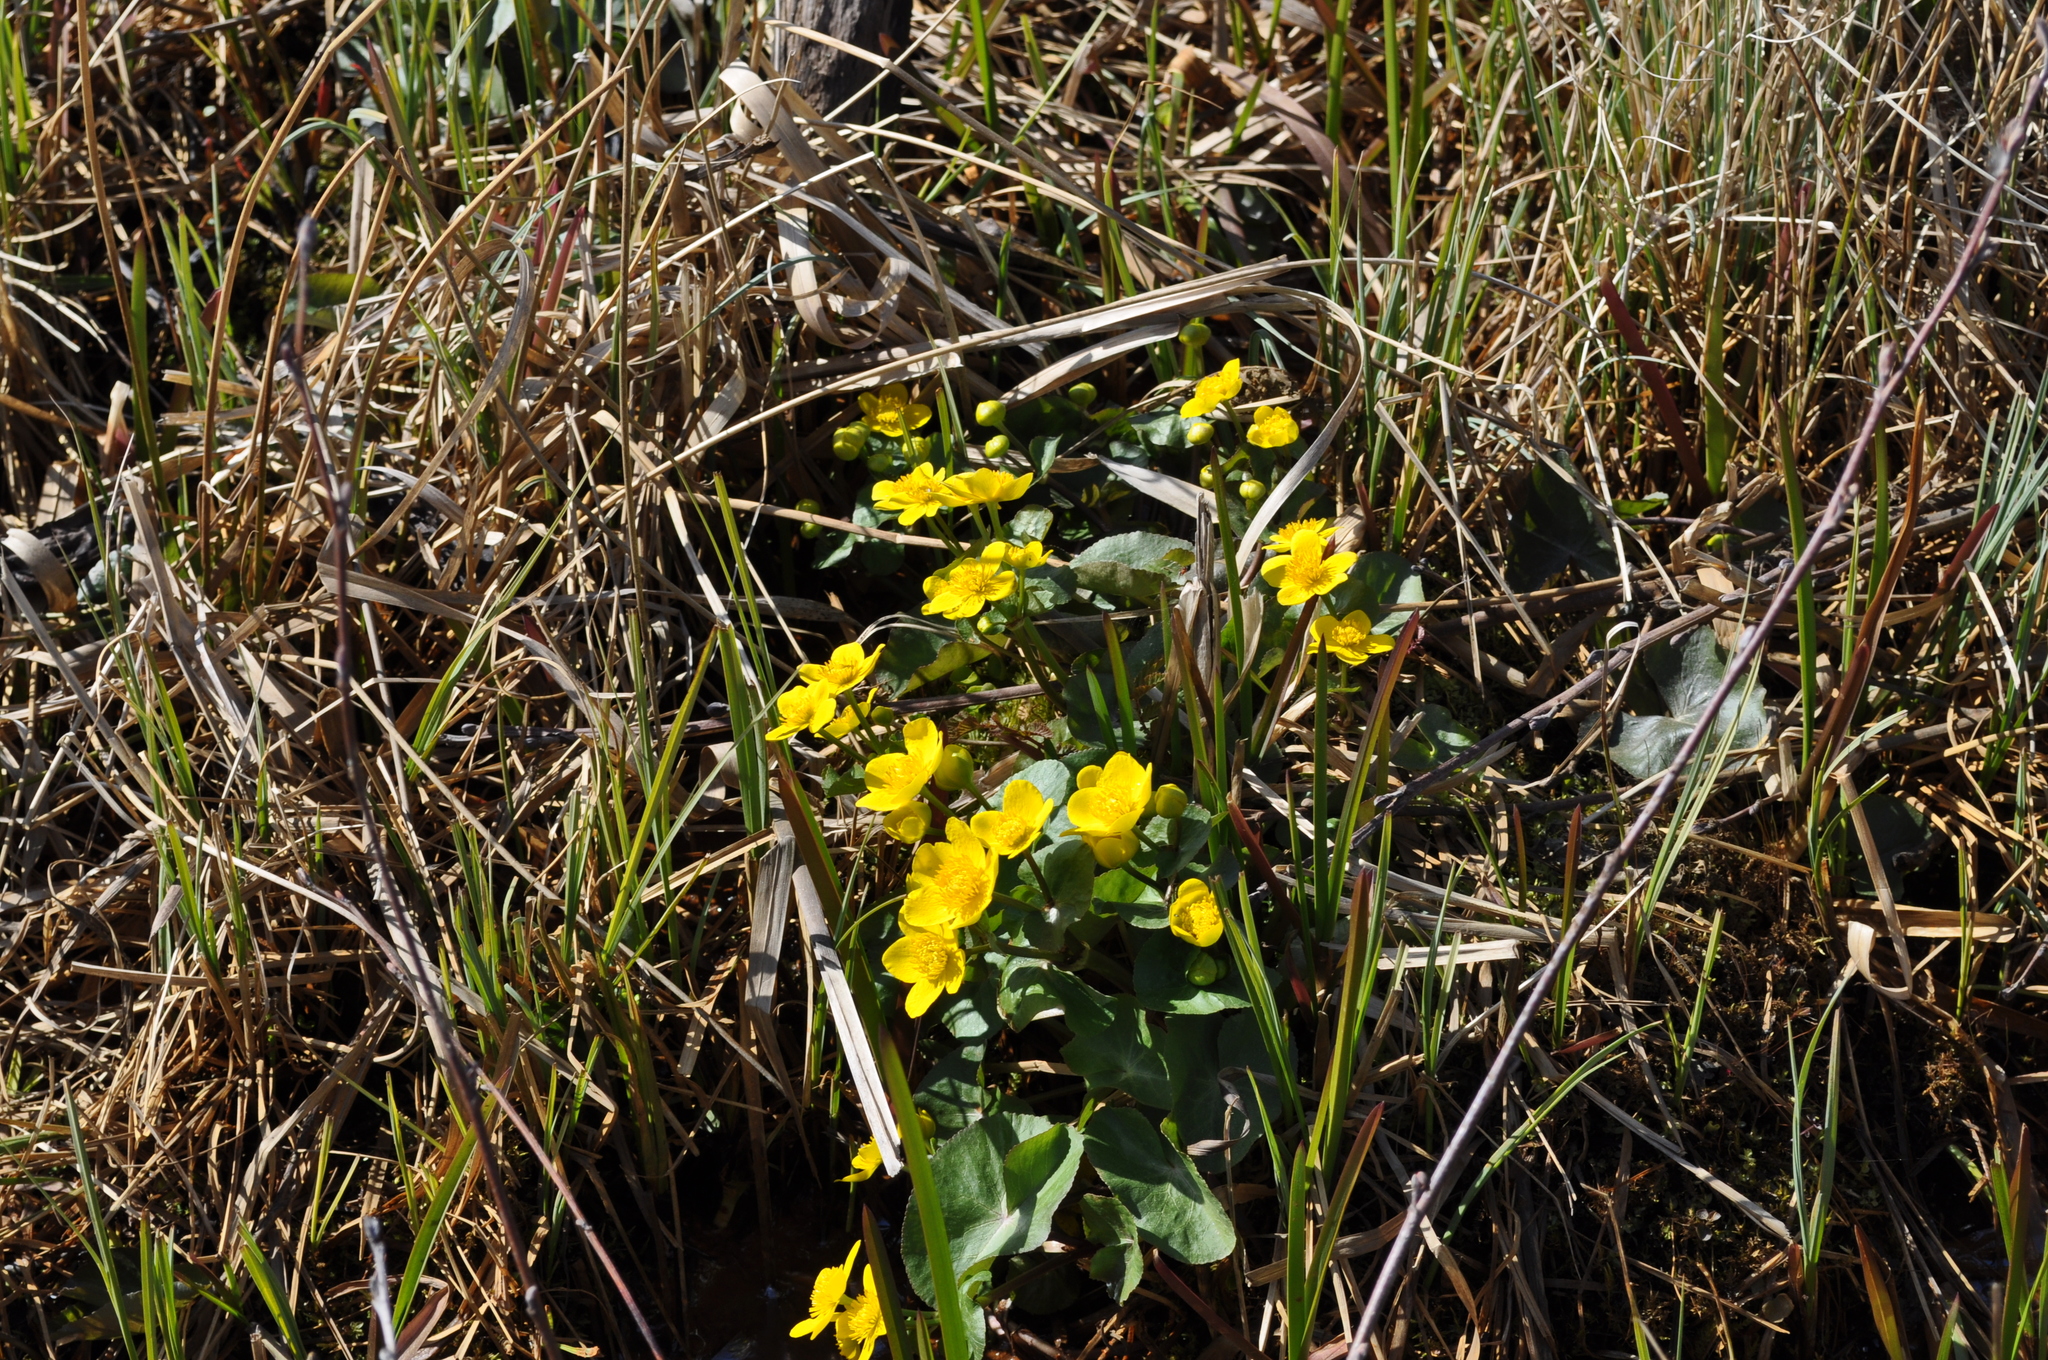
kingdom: Plantae
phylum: Tracheophyta
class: Magnoliopsida
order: Ranunculales
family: Ranunculaceae
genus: Caltha
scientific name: Caltha palustris
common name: Marsh marigold
